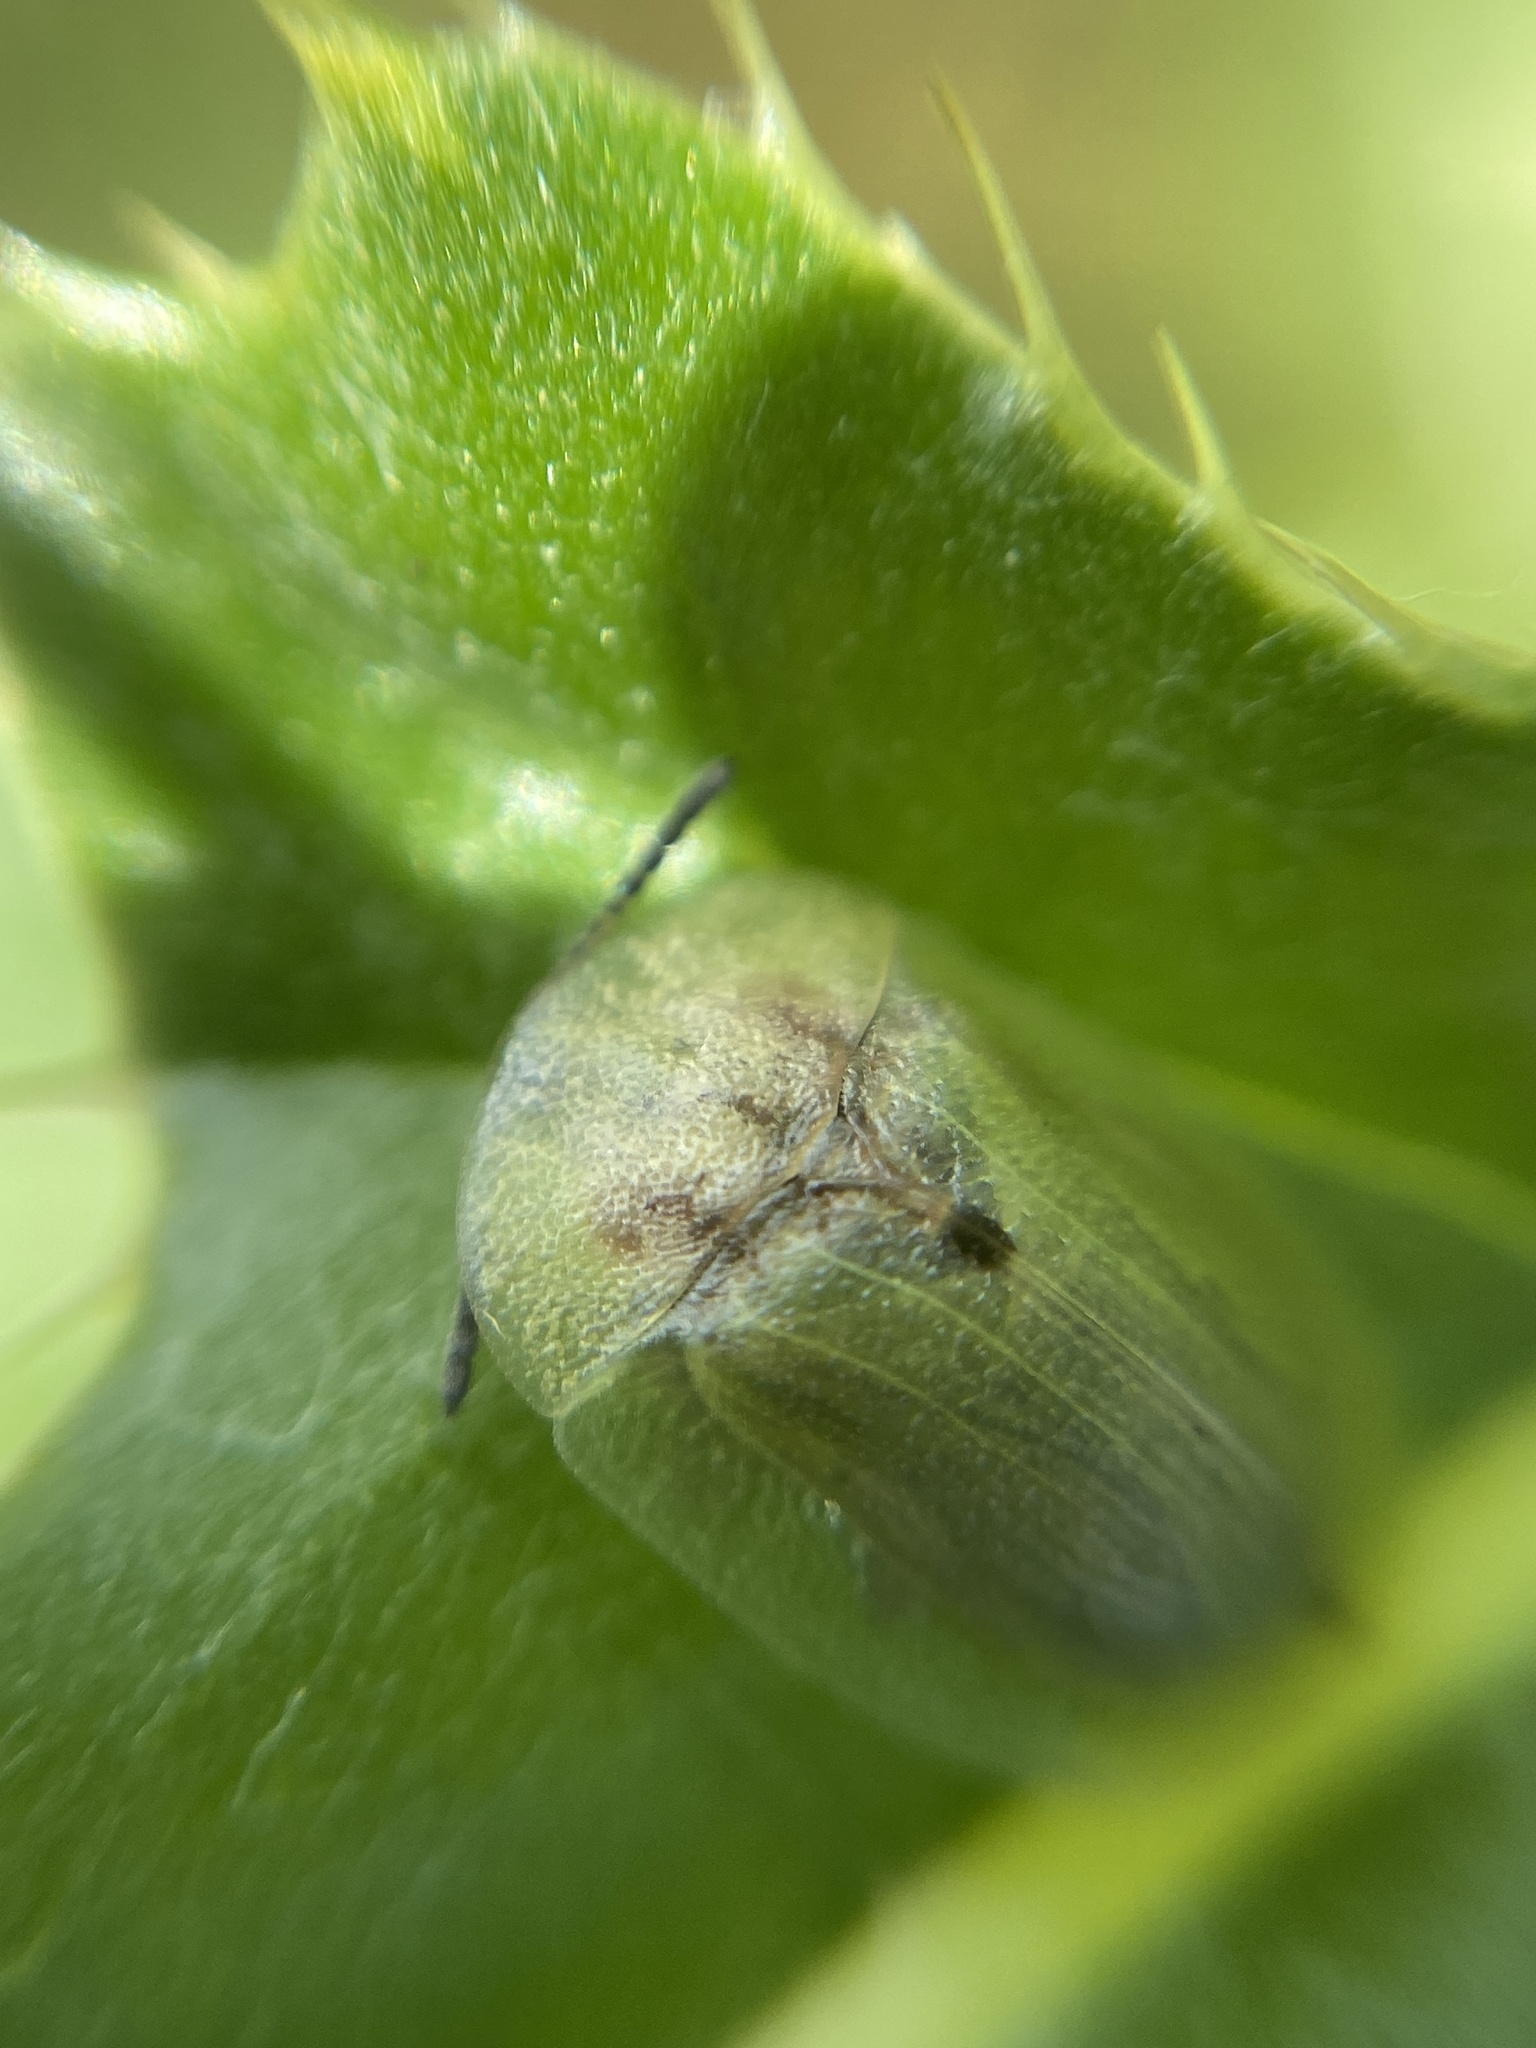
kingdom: Animalia
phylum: Arthropoda
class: Insecta
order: Coleoptera
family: Chrysomelidae
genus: Cassida
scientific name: Cassida rubiginosa
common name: Thistle tortoise beetle
